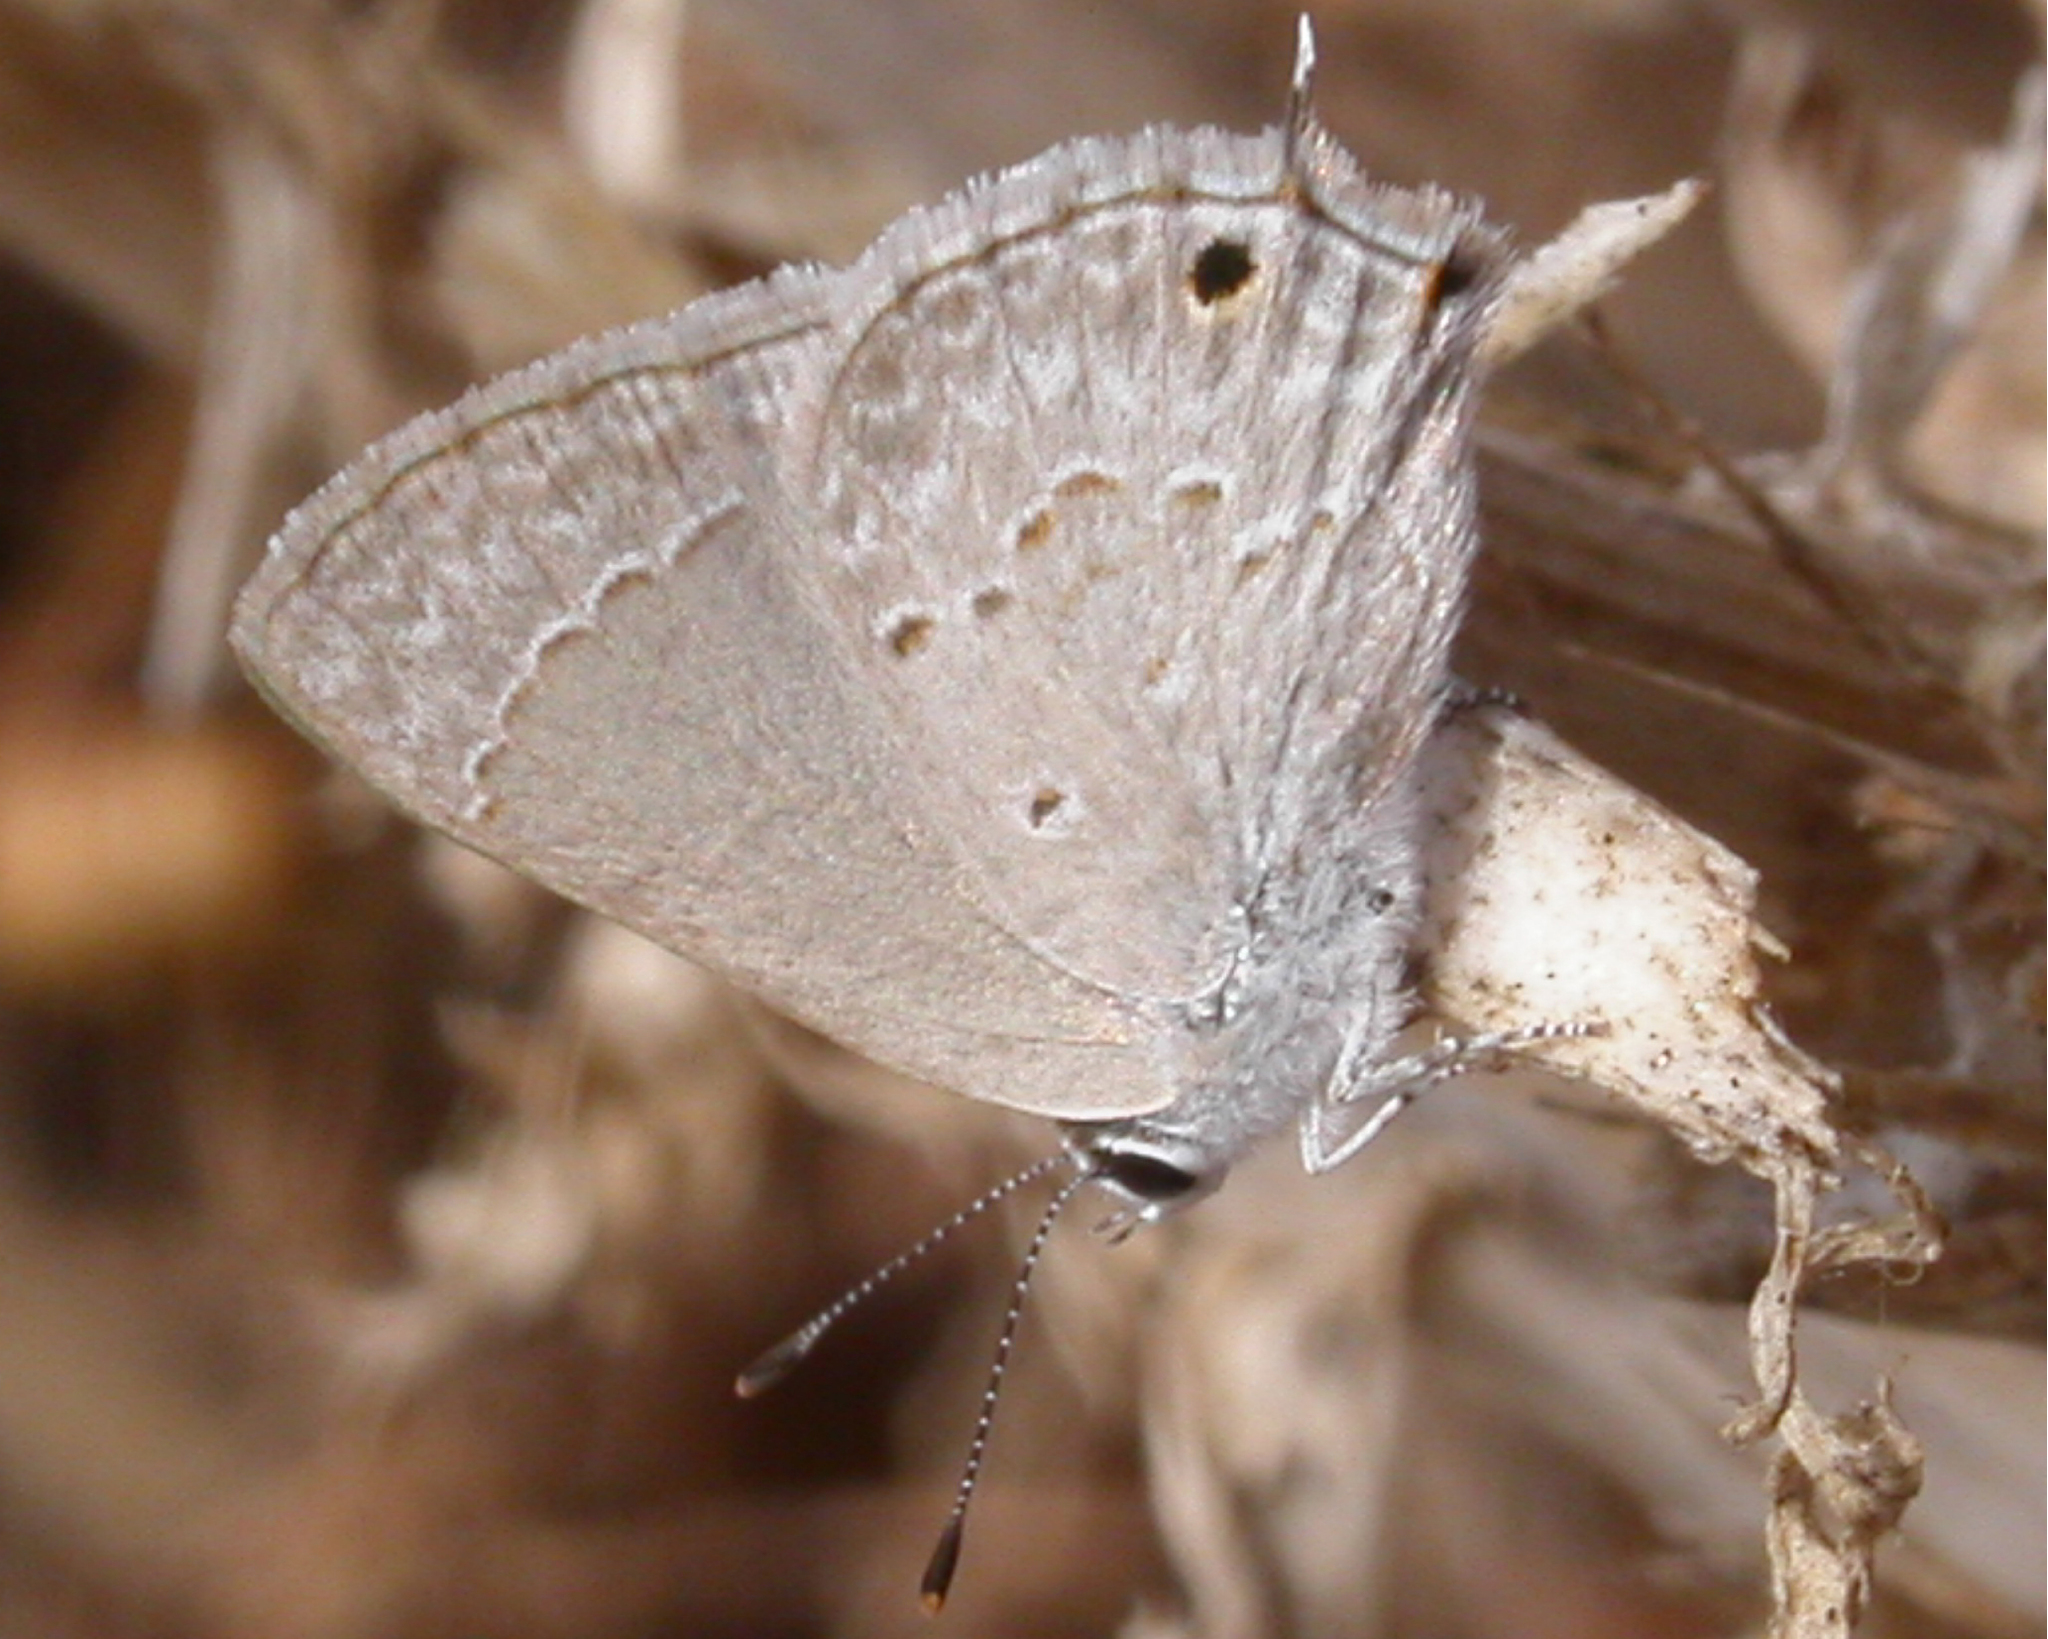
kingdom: Animalia
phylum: Arthropoda
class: Insecta
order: Lepidoptera
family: Lycaenidae
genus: Callicista
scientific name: Callicista columella
